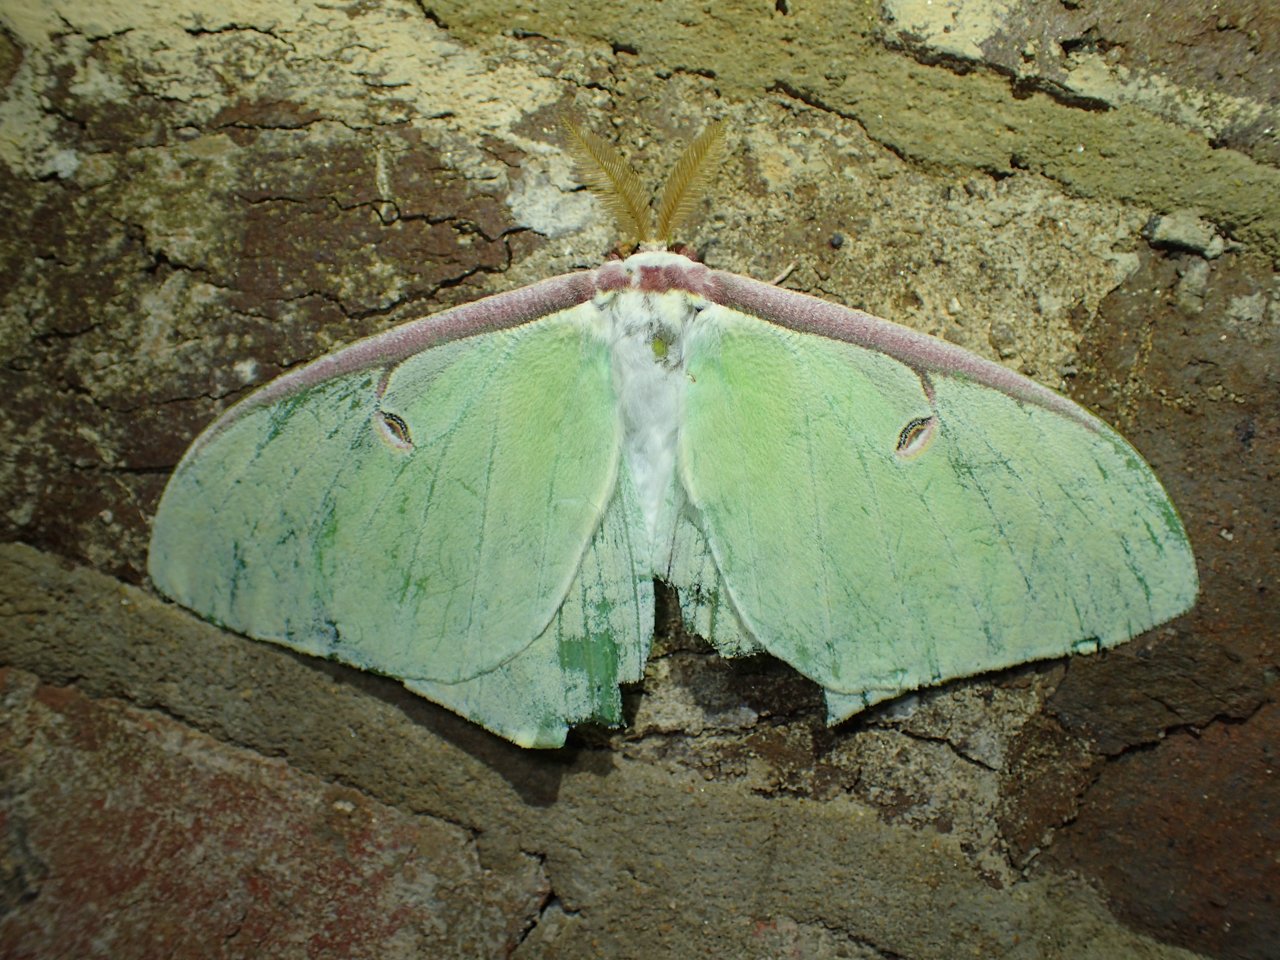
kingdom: Animalia
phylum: Arthropoda
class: Insecta
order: Lepidoptera
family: Saturniidae
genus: Actias
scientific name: Actias luna
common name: Luna moth
